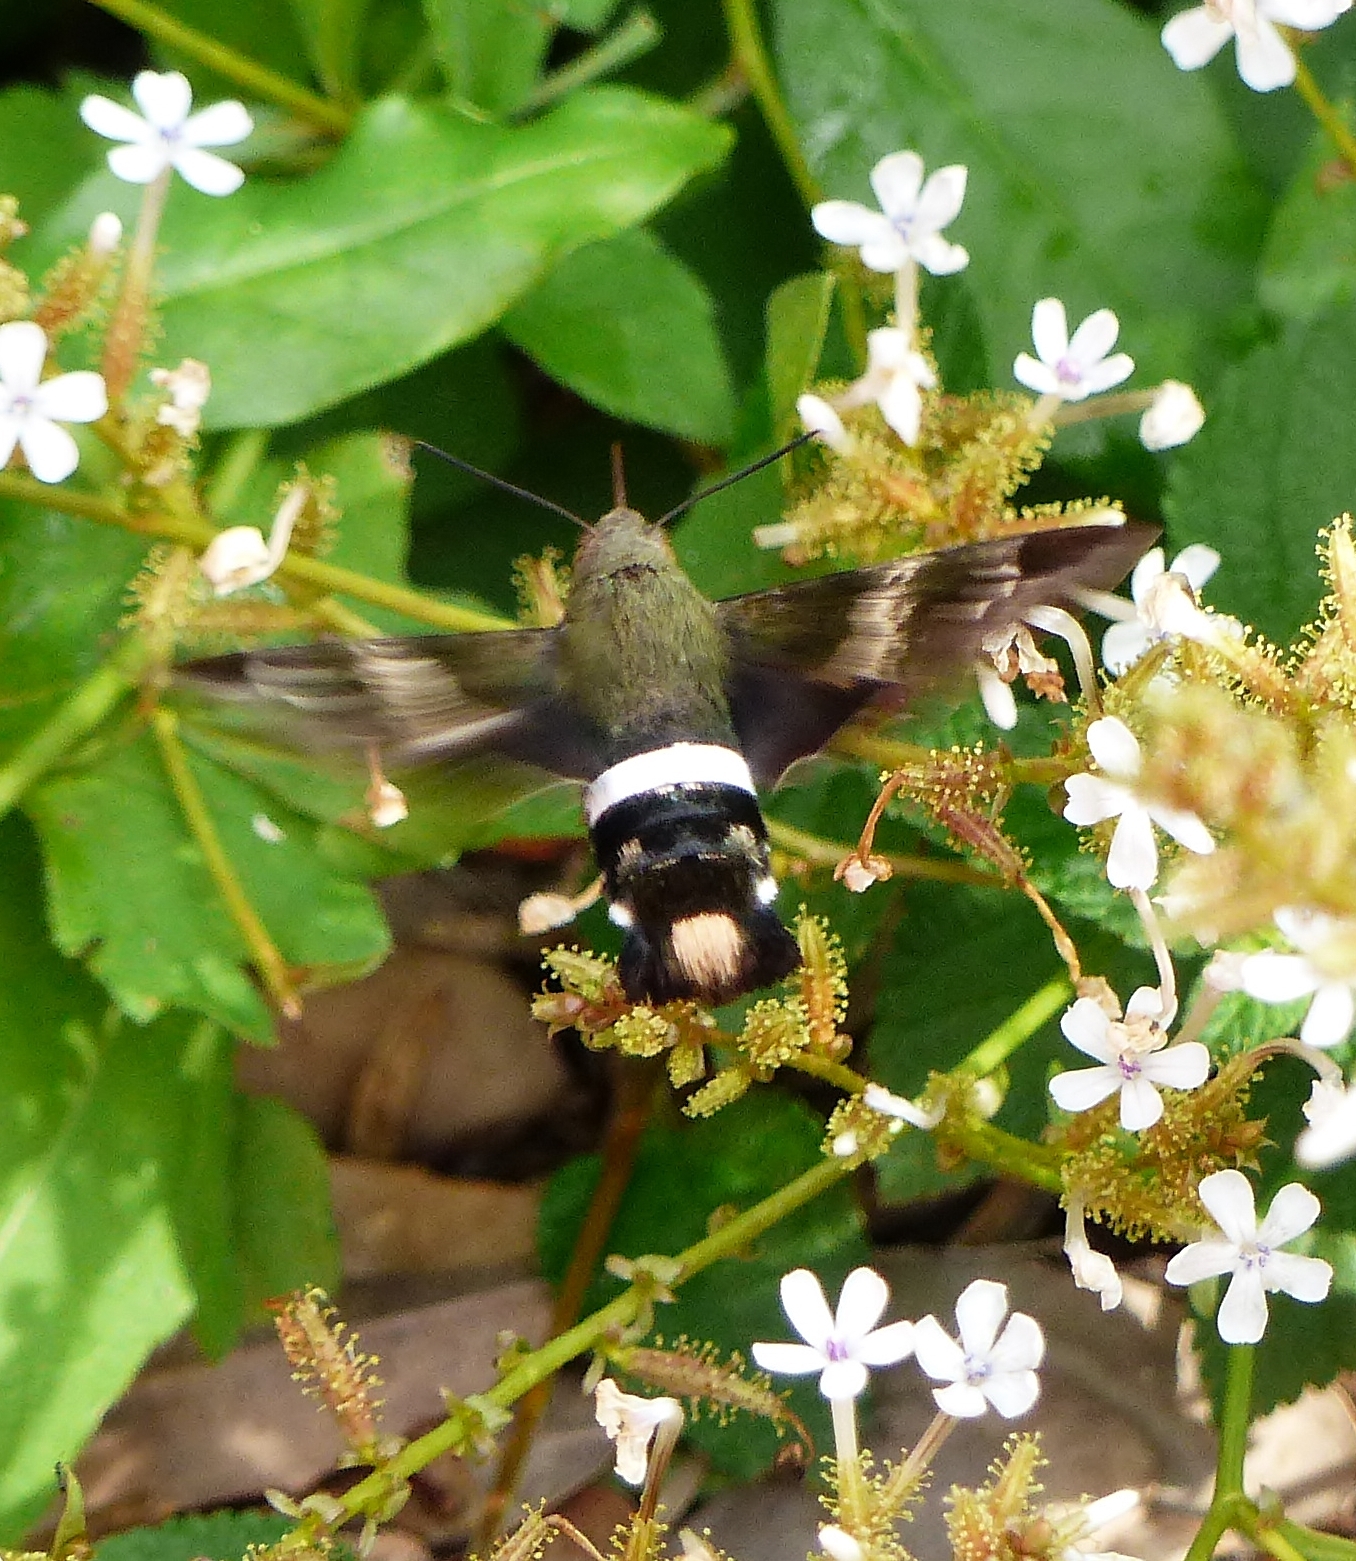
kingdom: Animalia
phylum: Arthropoda
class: Insecta
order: Lepidoptera
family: Sphingidae
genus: Aellopos
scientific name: Aellopos clavipes
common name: Clavipes sphinx
